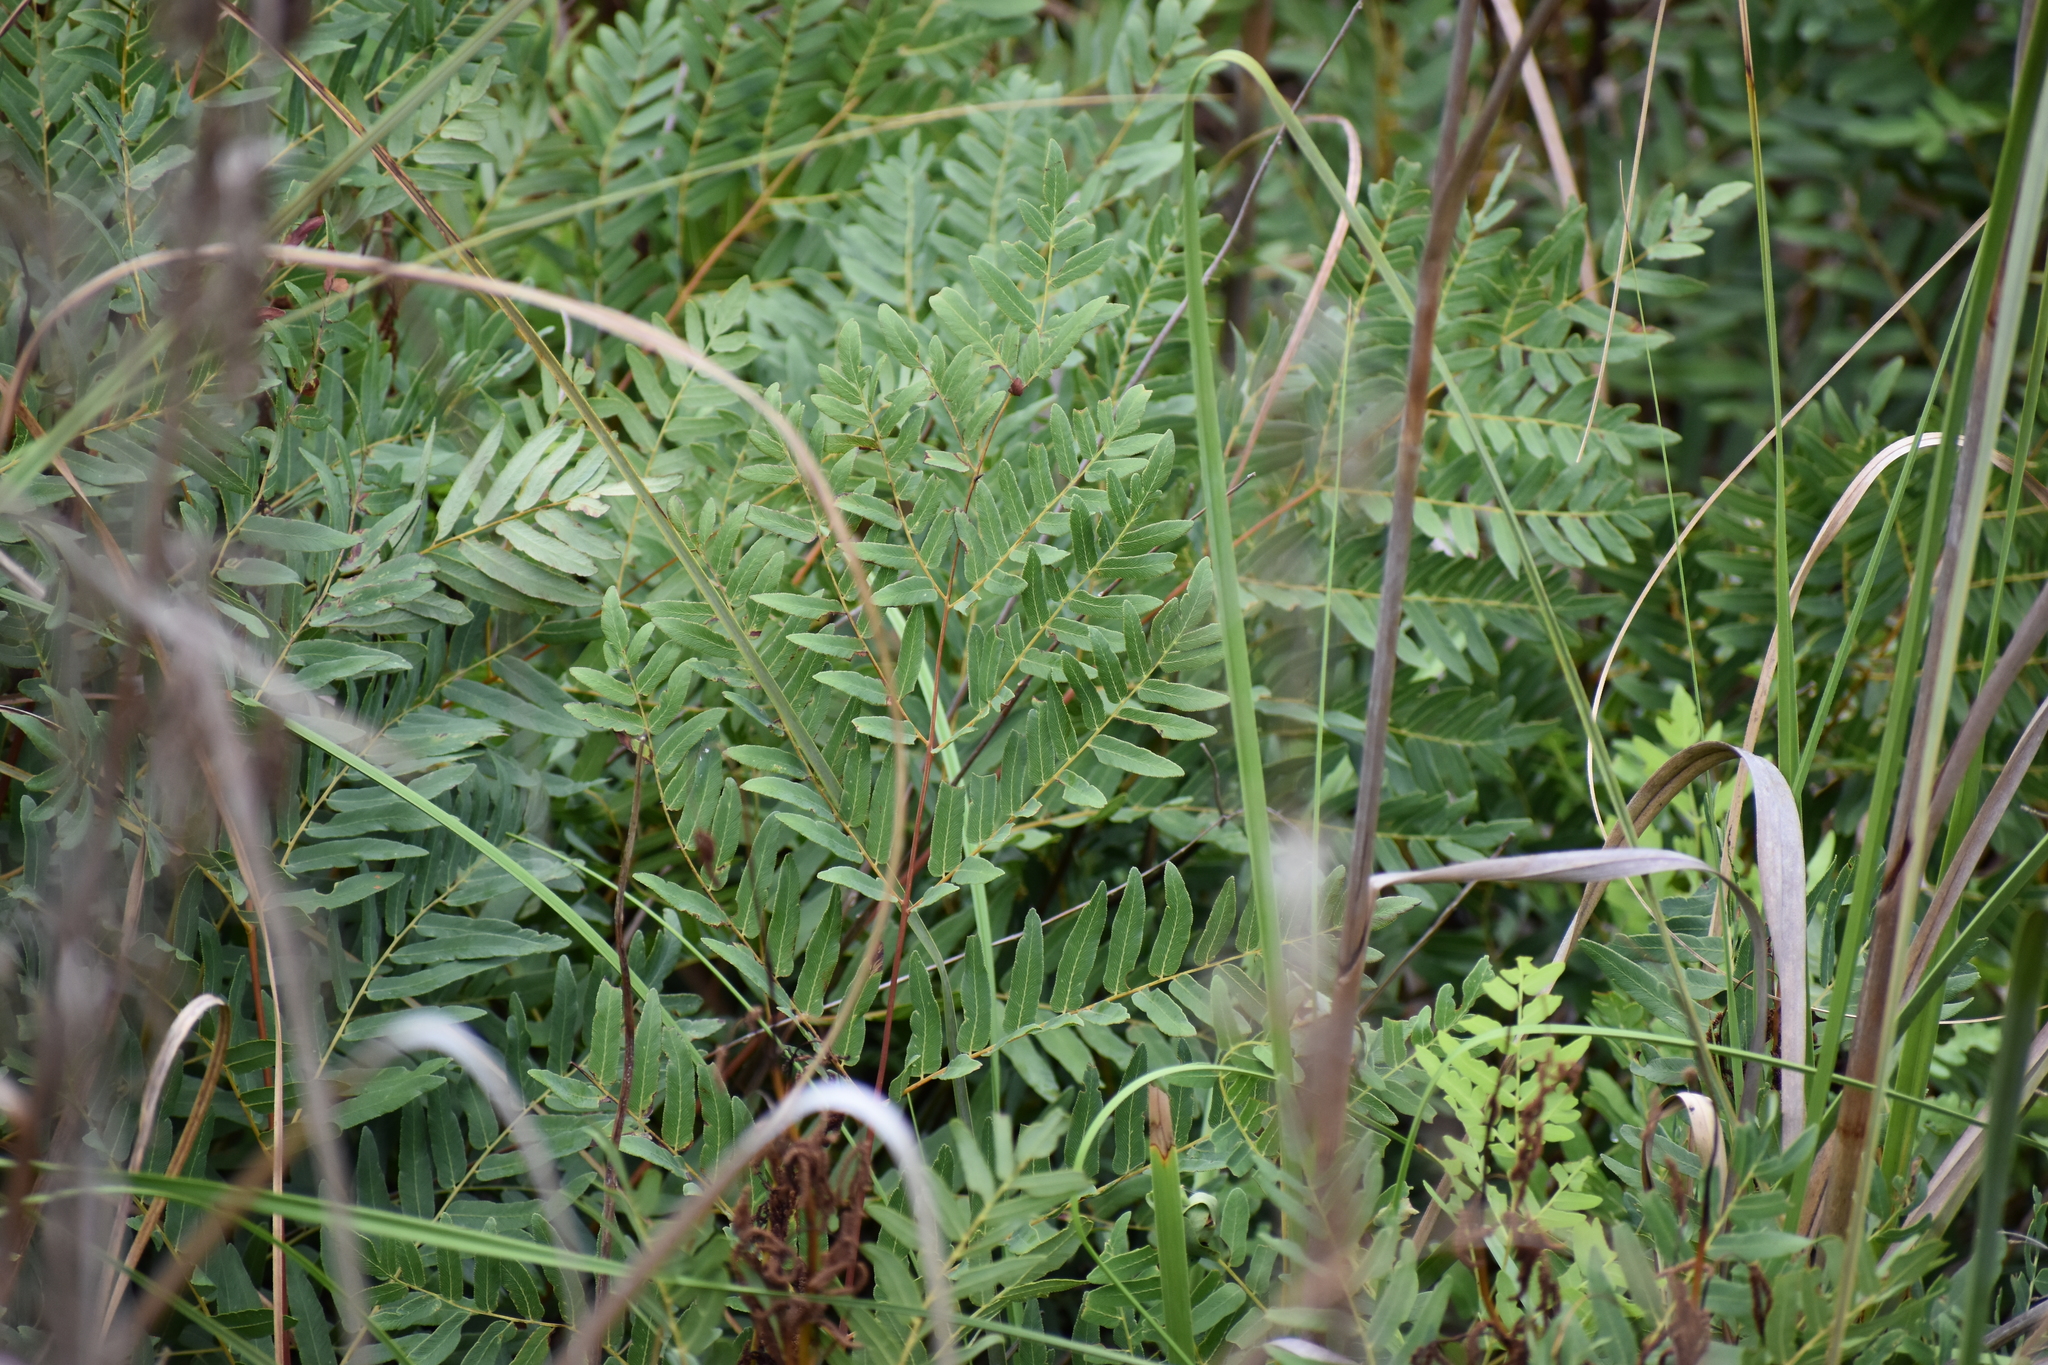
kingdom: Plantae
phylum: Tracheophyta
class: Polypodiopsida
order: Osmundales
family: Osmundaceae
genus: Osmunda
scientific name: Osmunda spectabilis
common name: American royal fern
